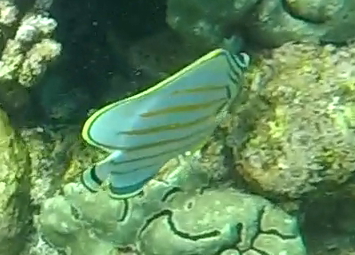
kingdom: Animalia
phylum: Chordata
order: Perciformes
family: Chaetodontidae
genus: Chaetodon
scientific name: Chaetodon ornatissimus
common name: Ornate butterflyfish
